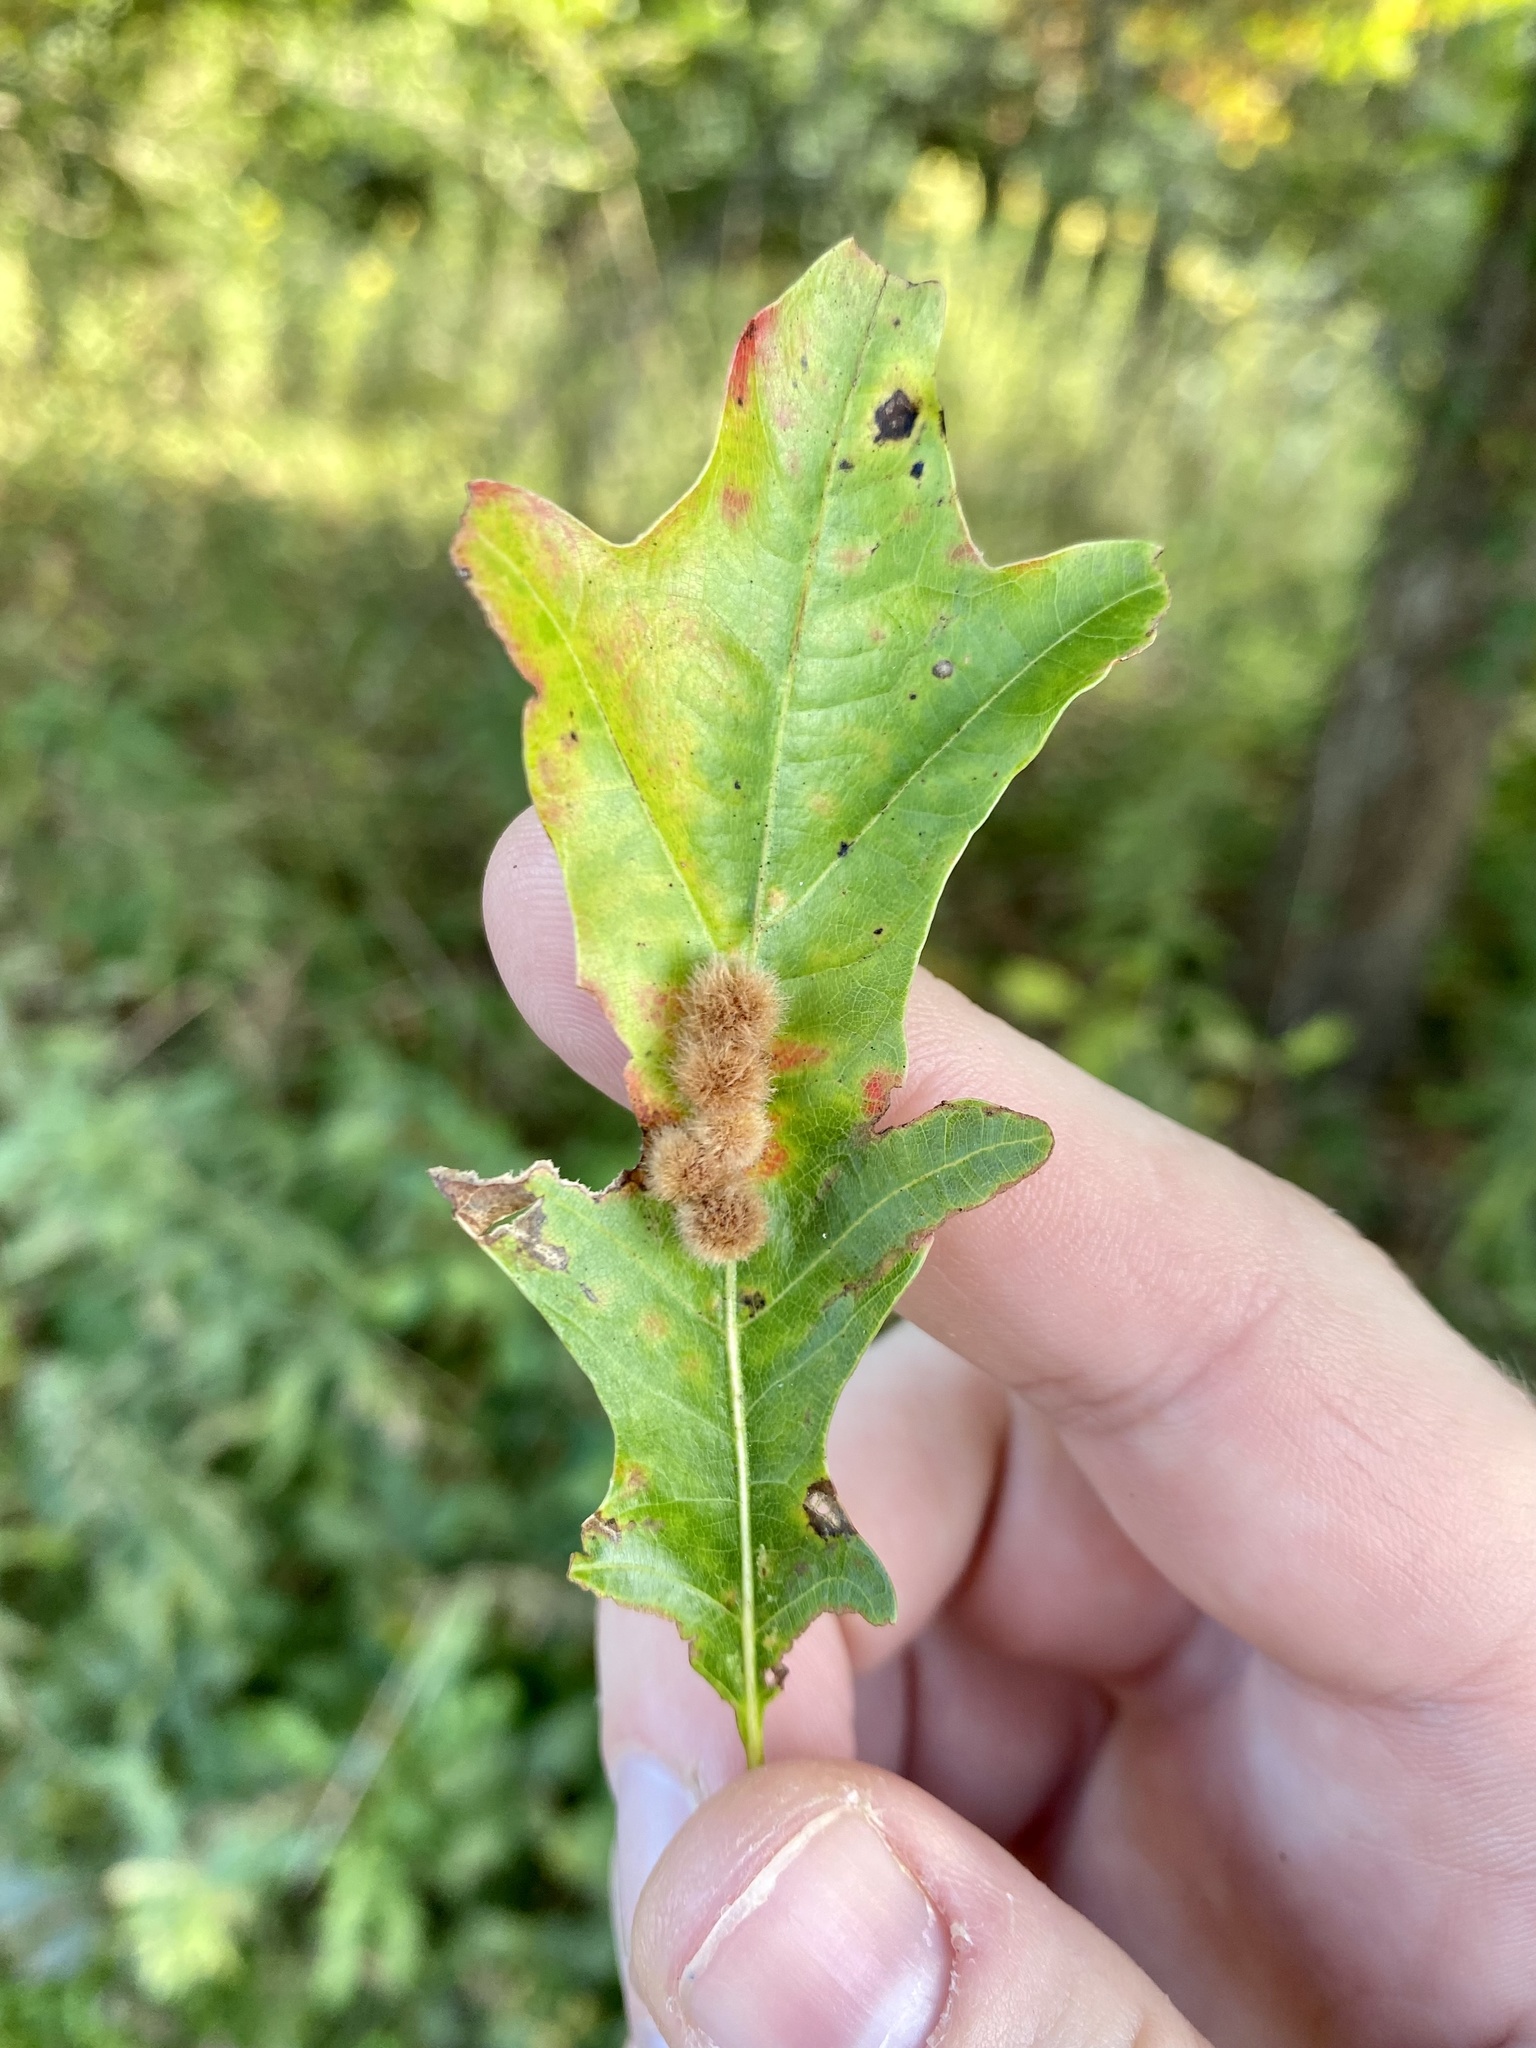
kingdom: Animalia
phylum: Arthropoda
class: Insecta
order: Hymenoptera
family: Cynipidae
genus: Callirhytis
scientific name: Callirhytis
